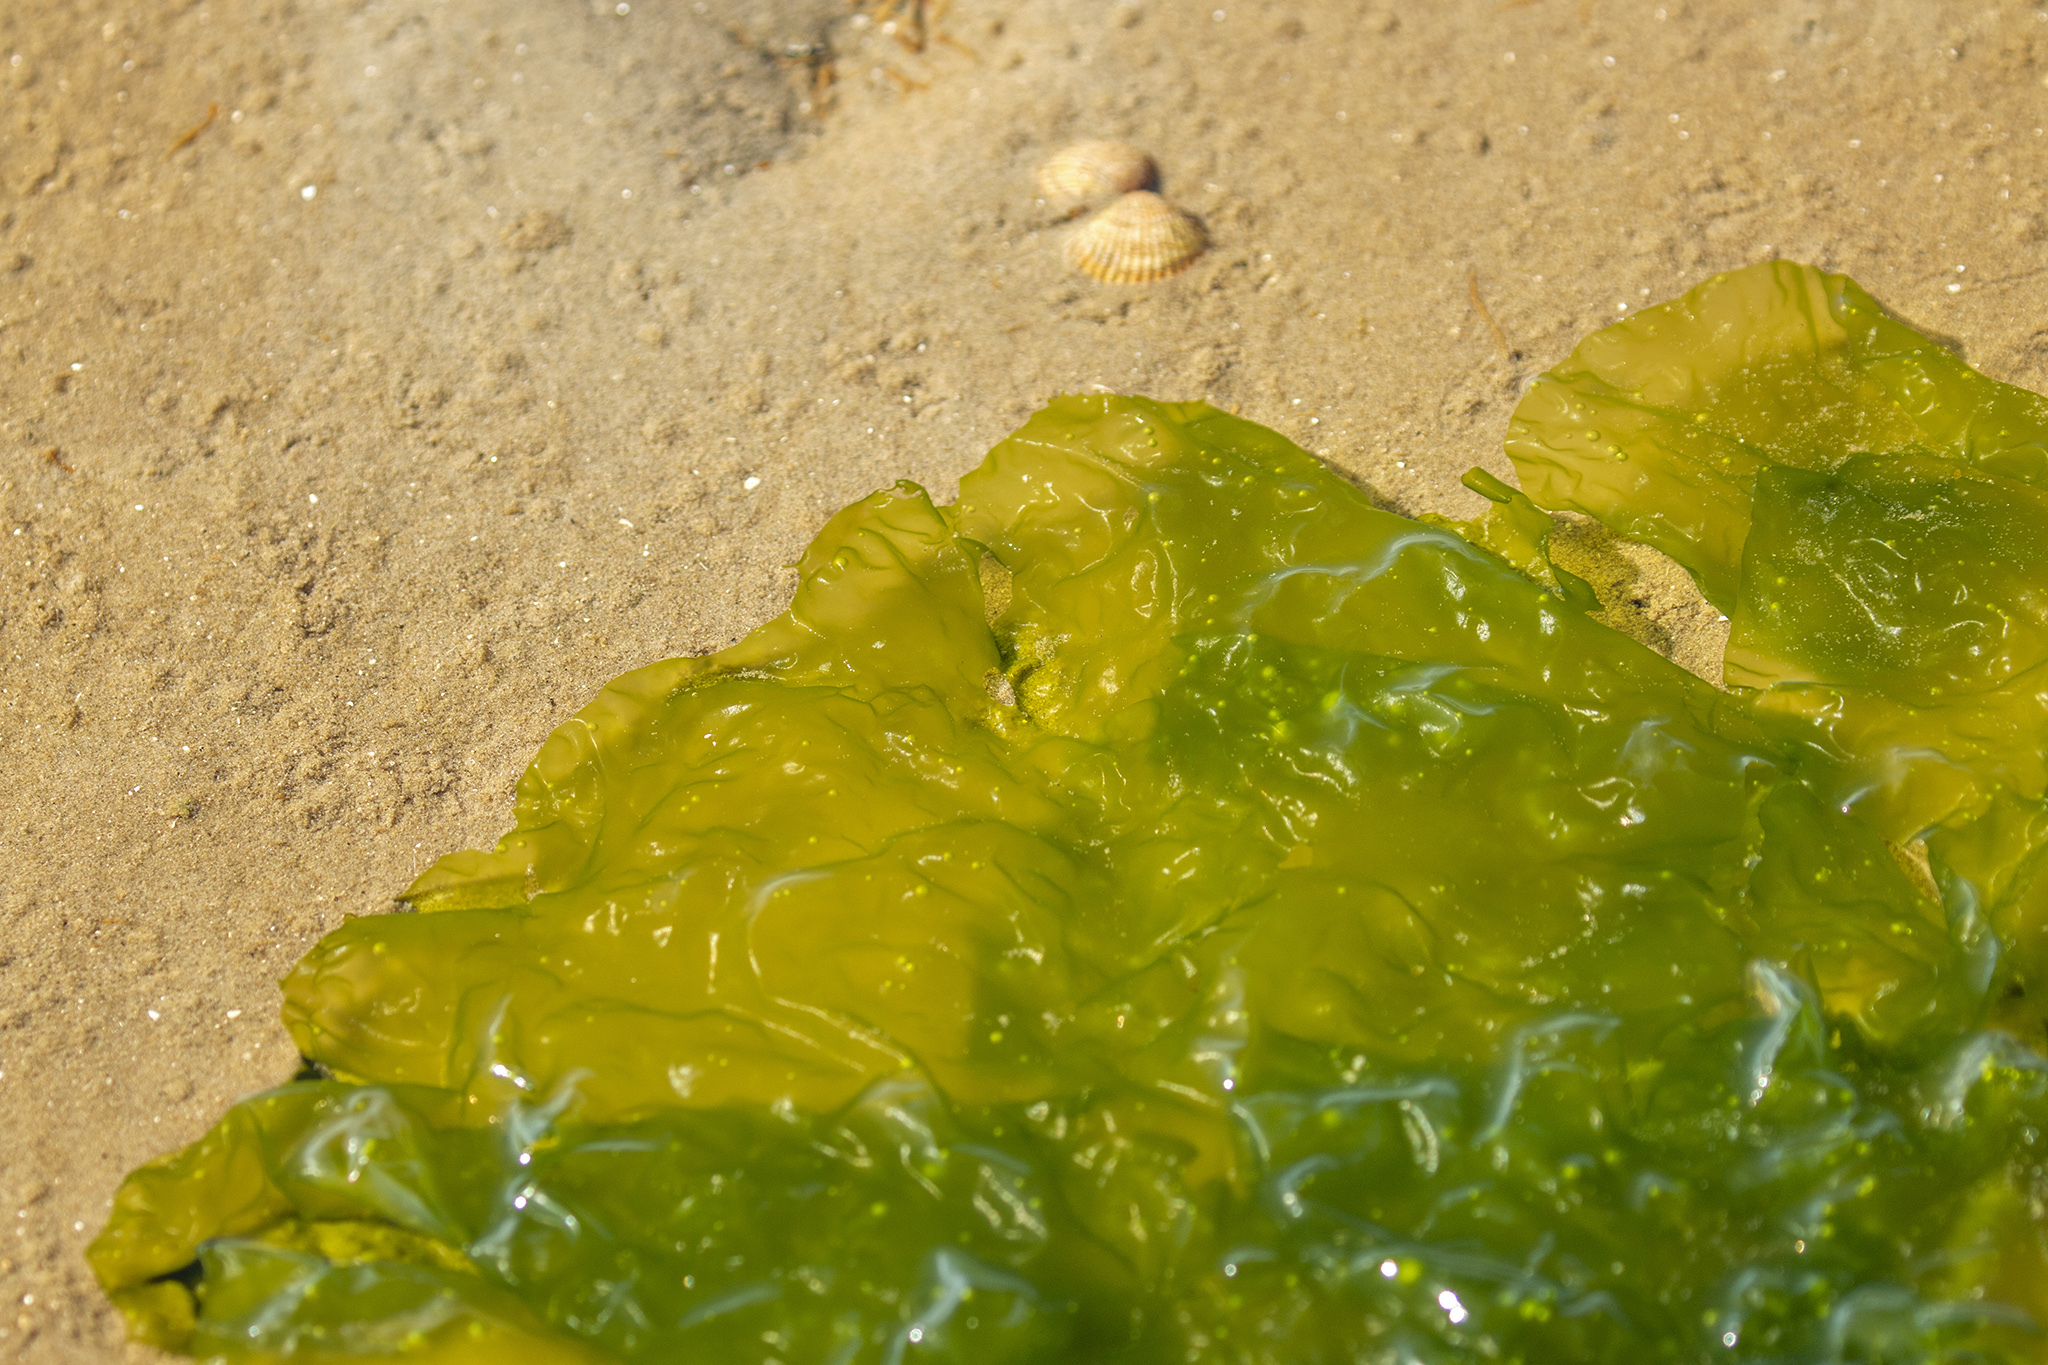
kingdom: Plantae
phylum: Chlorophyta
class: Ulvophyceae
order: Ulvales
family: Ulvaceae
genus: Ulva
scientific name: Ulva lactuca
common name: Sea lettuce
